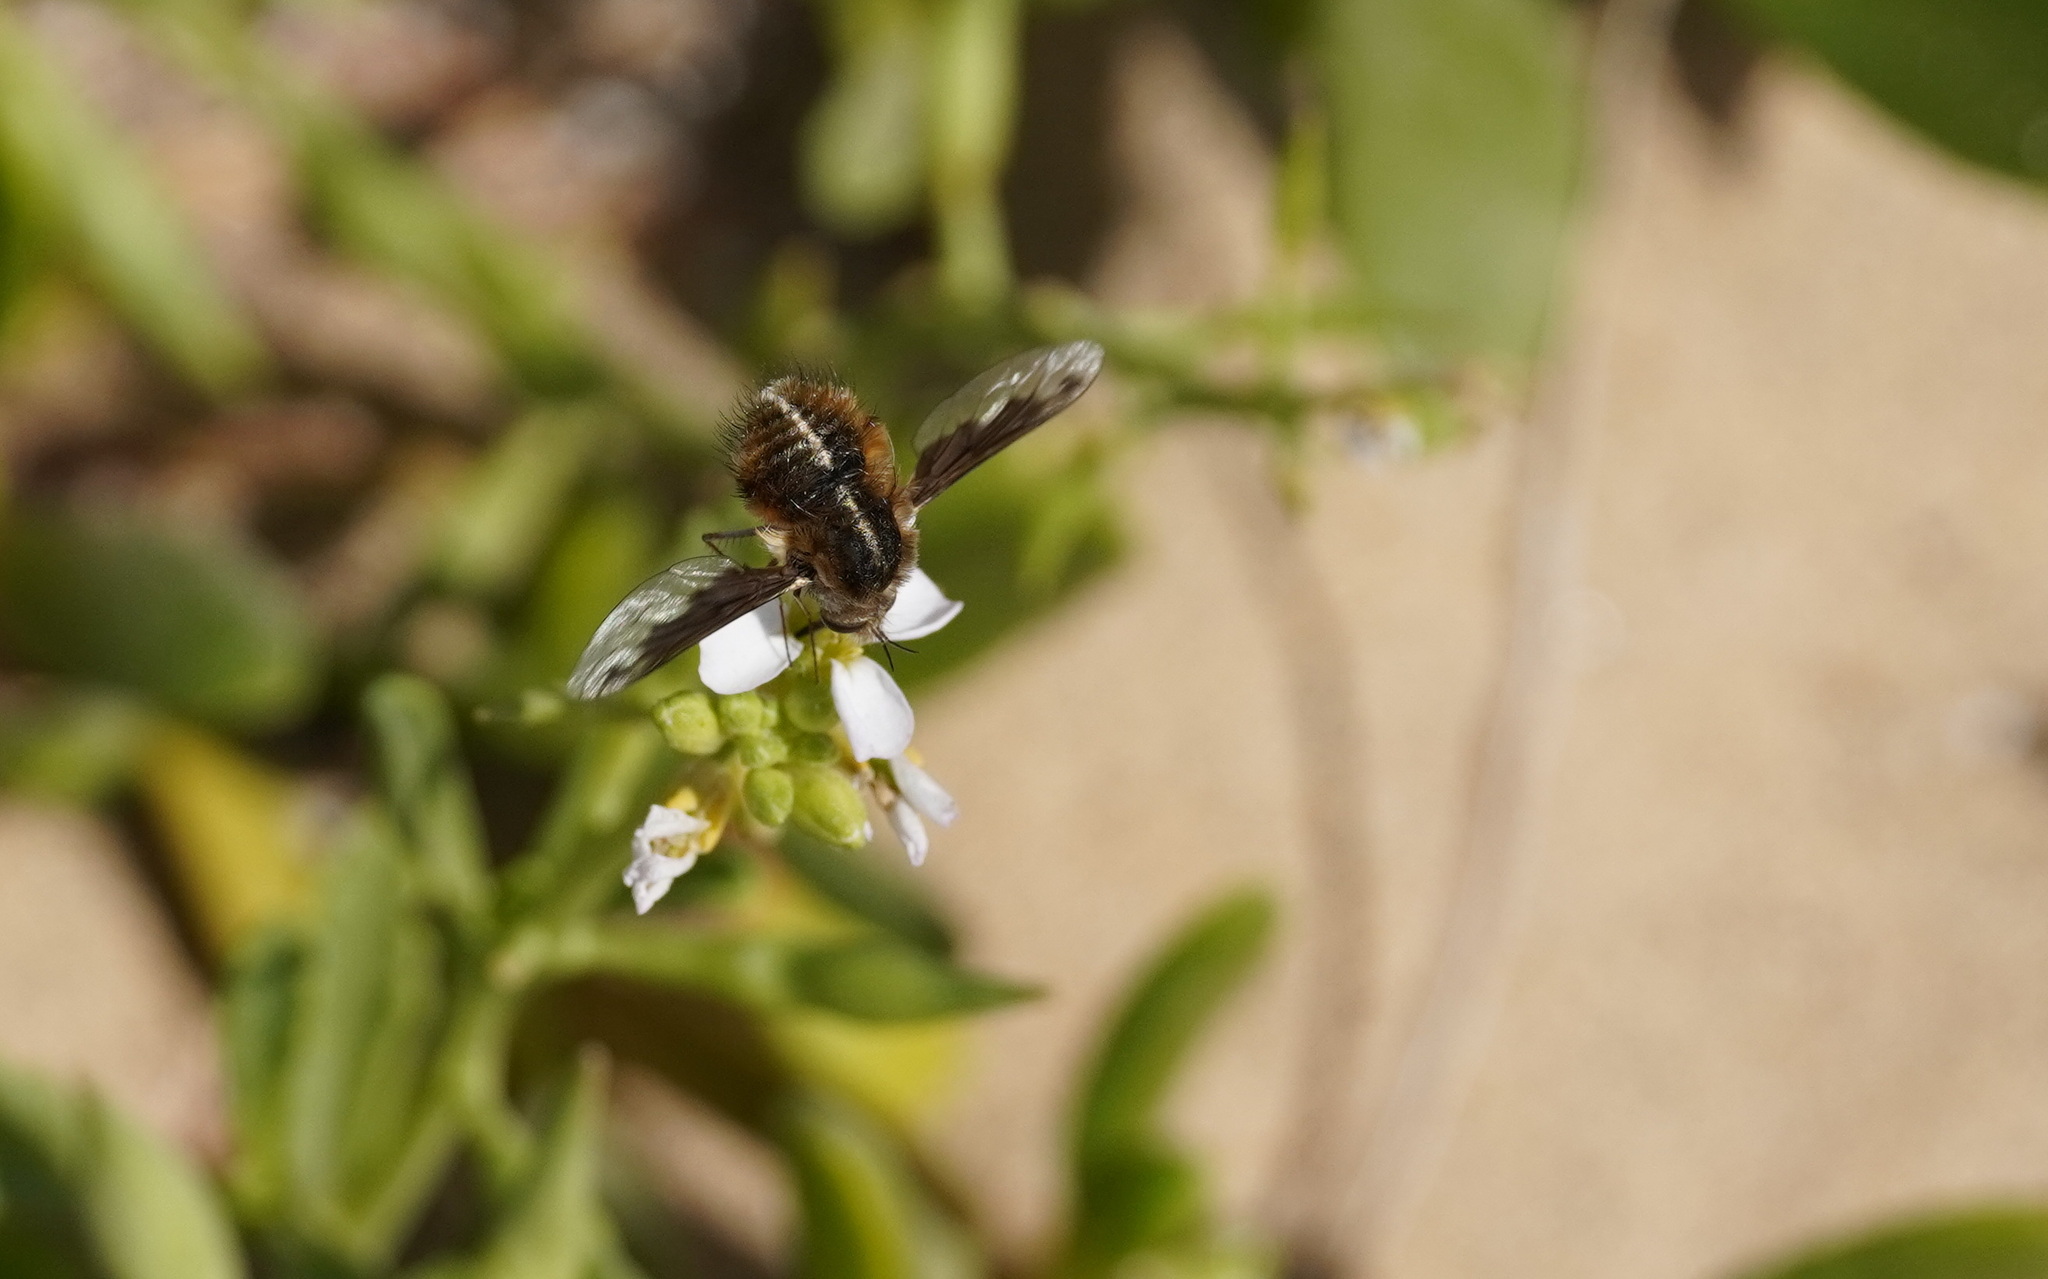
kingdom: Animalia
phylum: Arthropoda
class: Insecta
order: Diptera
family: Bombyliidae
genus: Bombylius
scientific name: Bombylius aaroni
